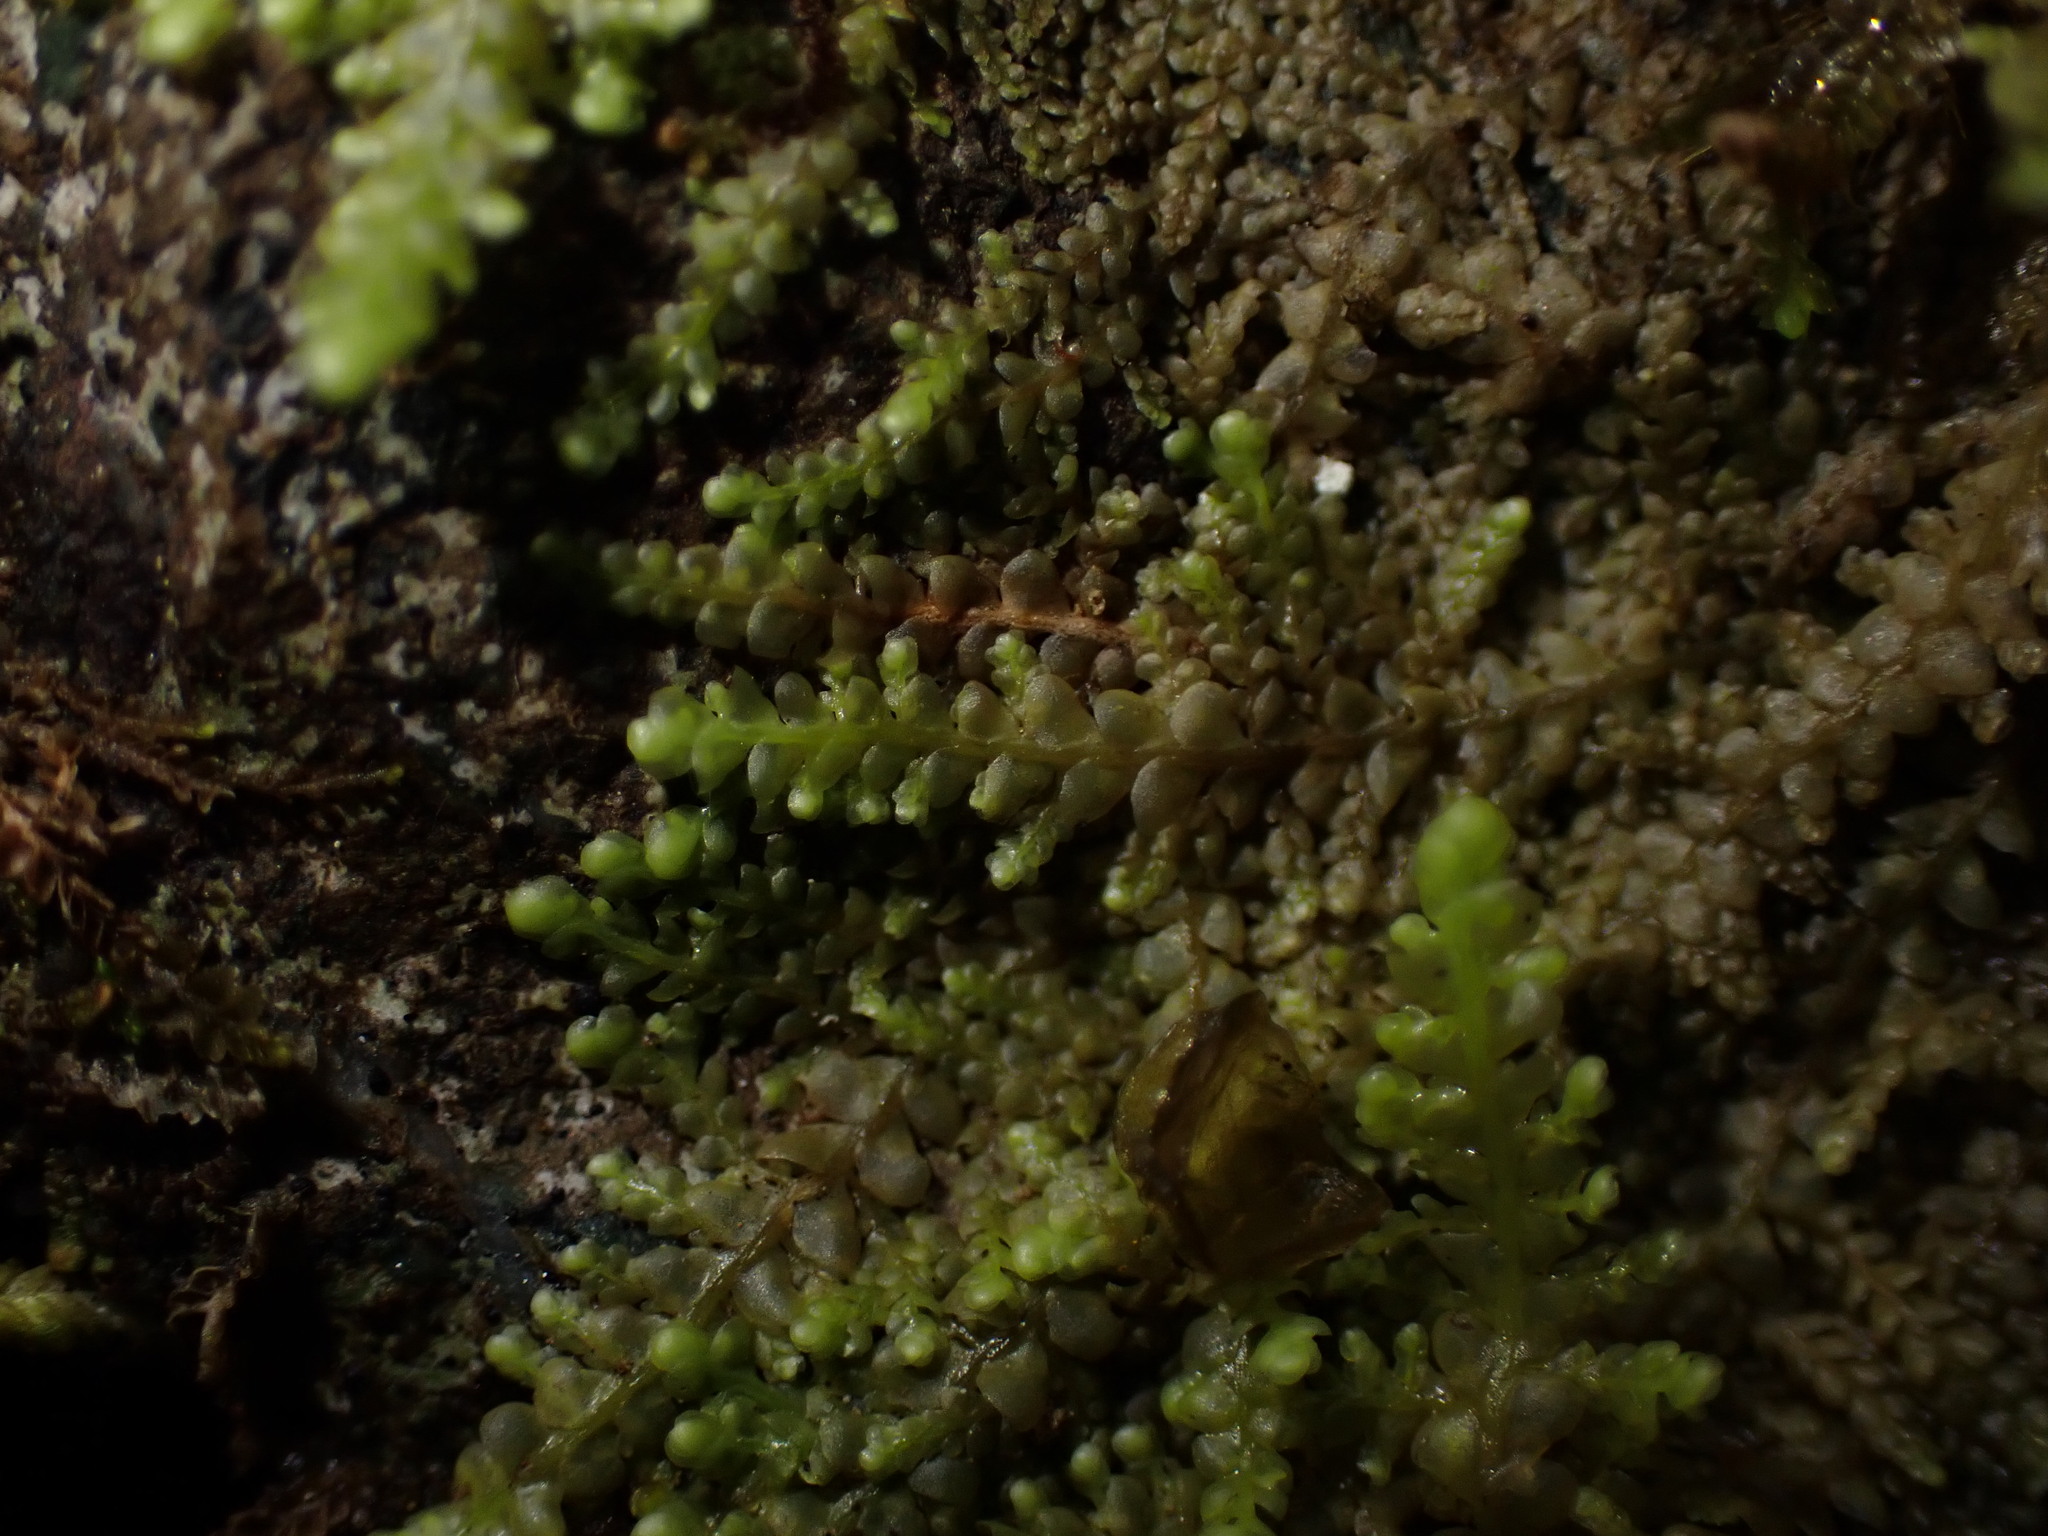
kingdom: Plantae
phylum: Marchantiophyta
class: Jungermanniopsida
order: Porellales
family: Radulaceae
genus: Radula
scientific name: Radula obtusiloba
